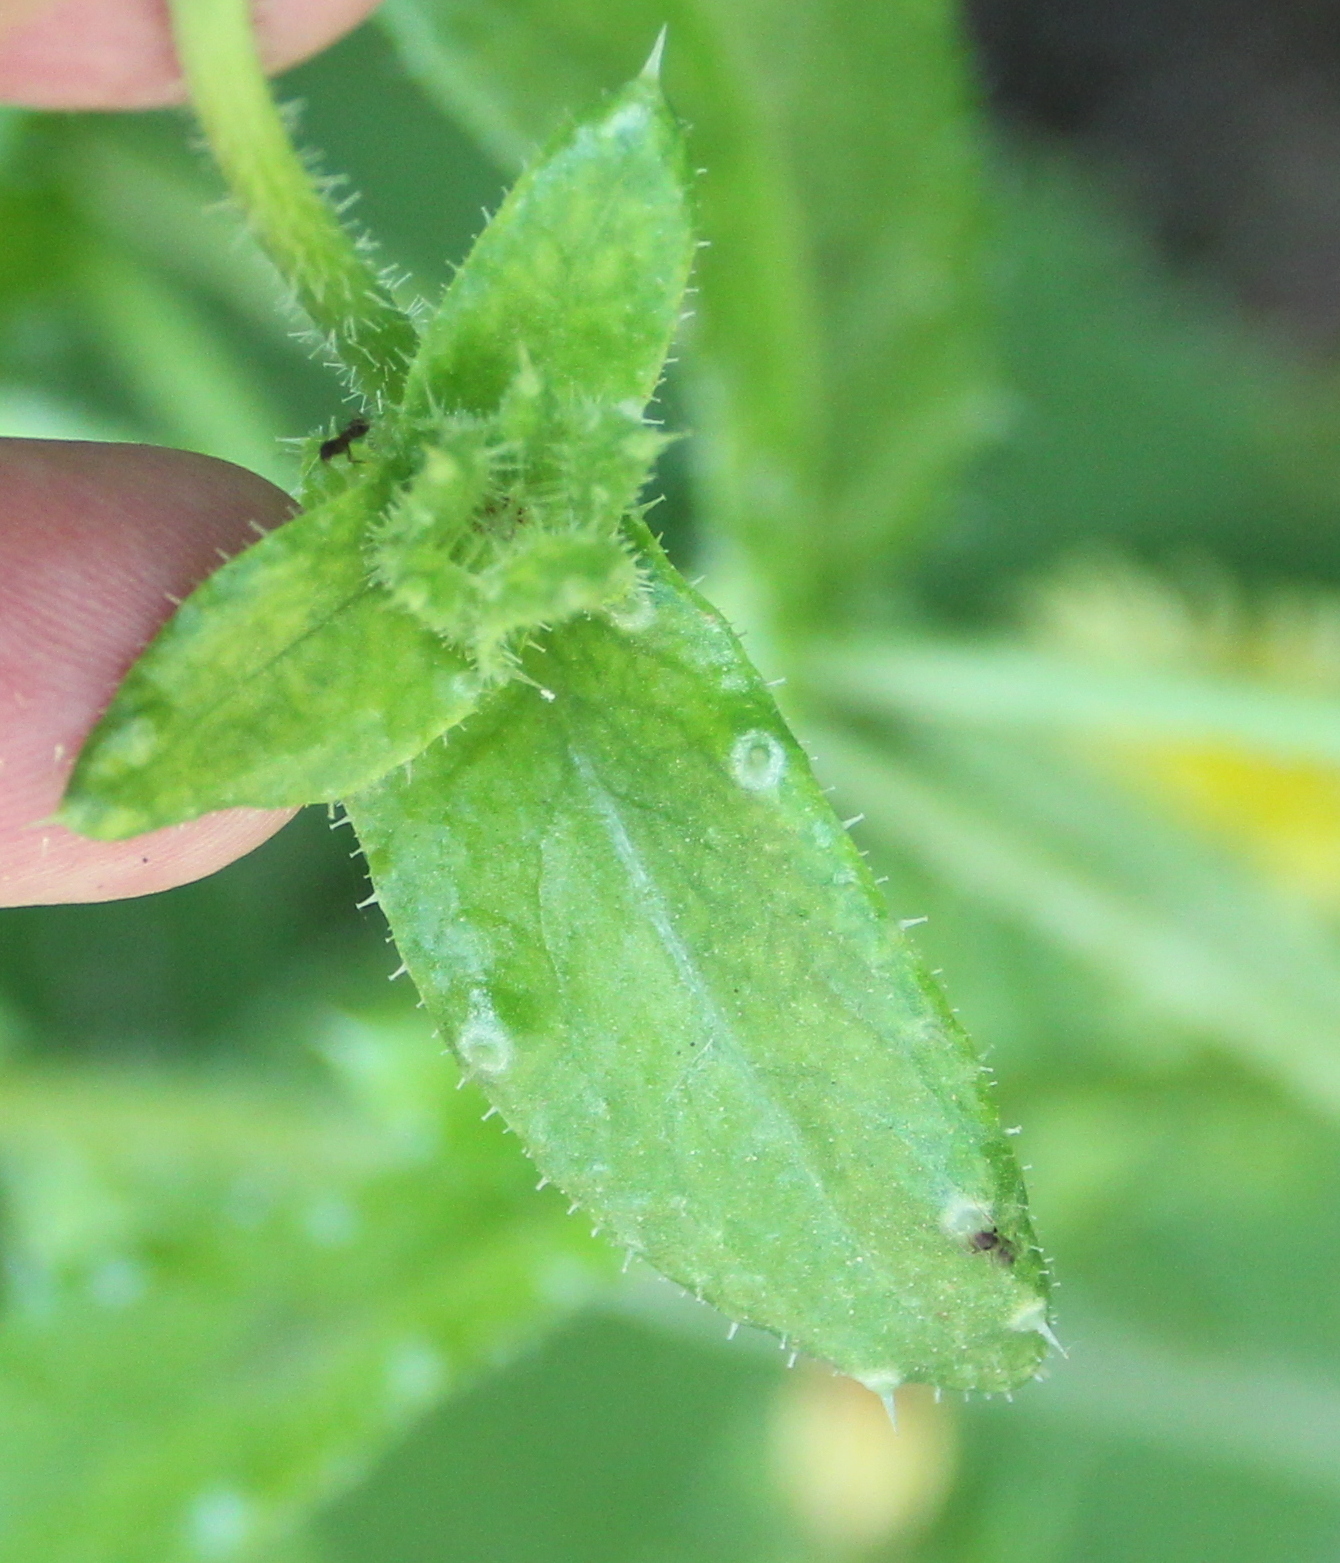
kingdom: Plantae
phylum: Tracheophyta
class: Magnoliopsida
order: Asterales
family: Asteraceae
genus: Helminthotheca
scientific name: Helminthotheca echioides
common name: Ox-tongue
